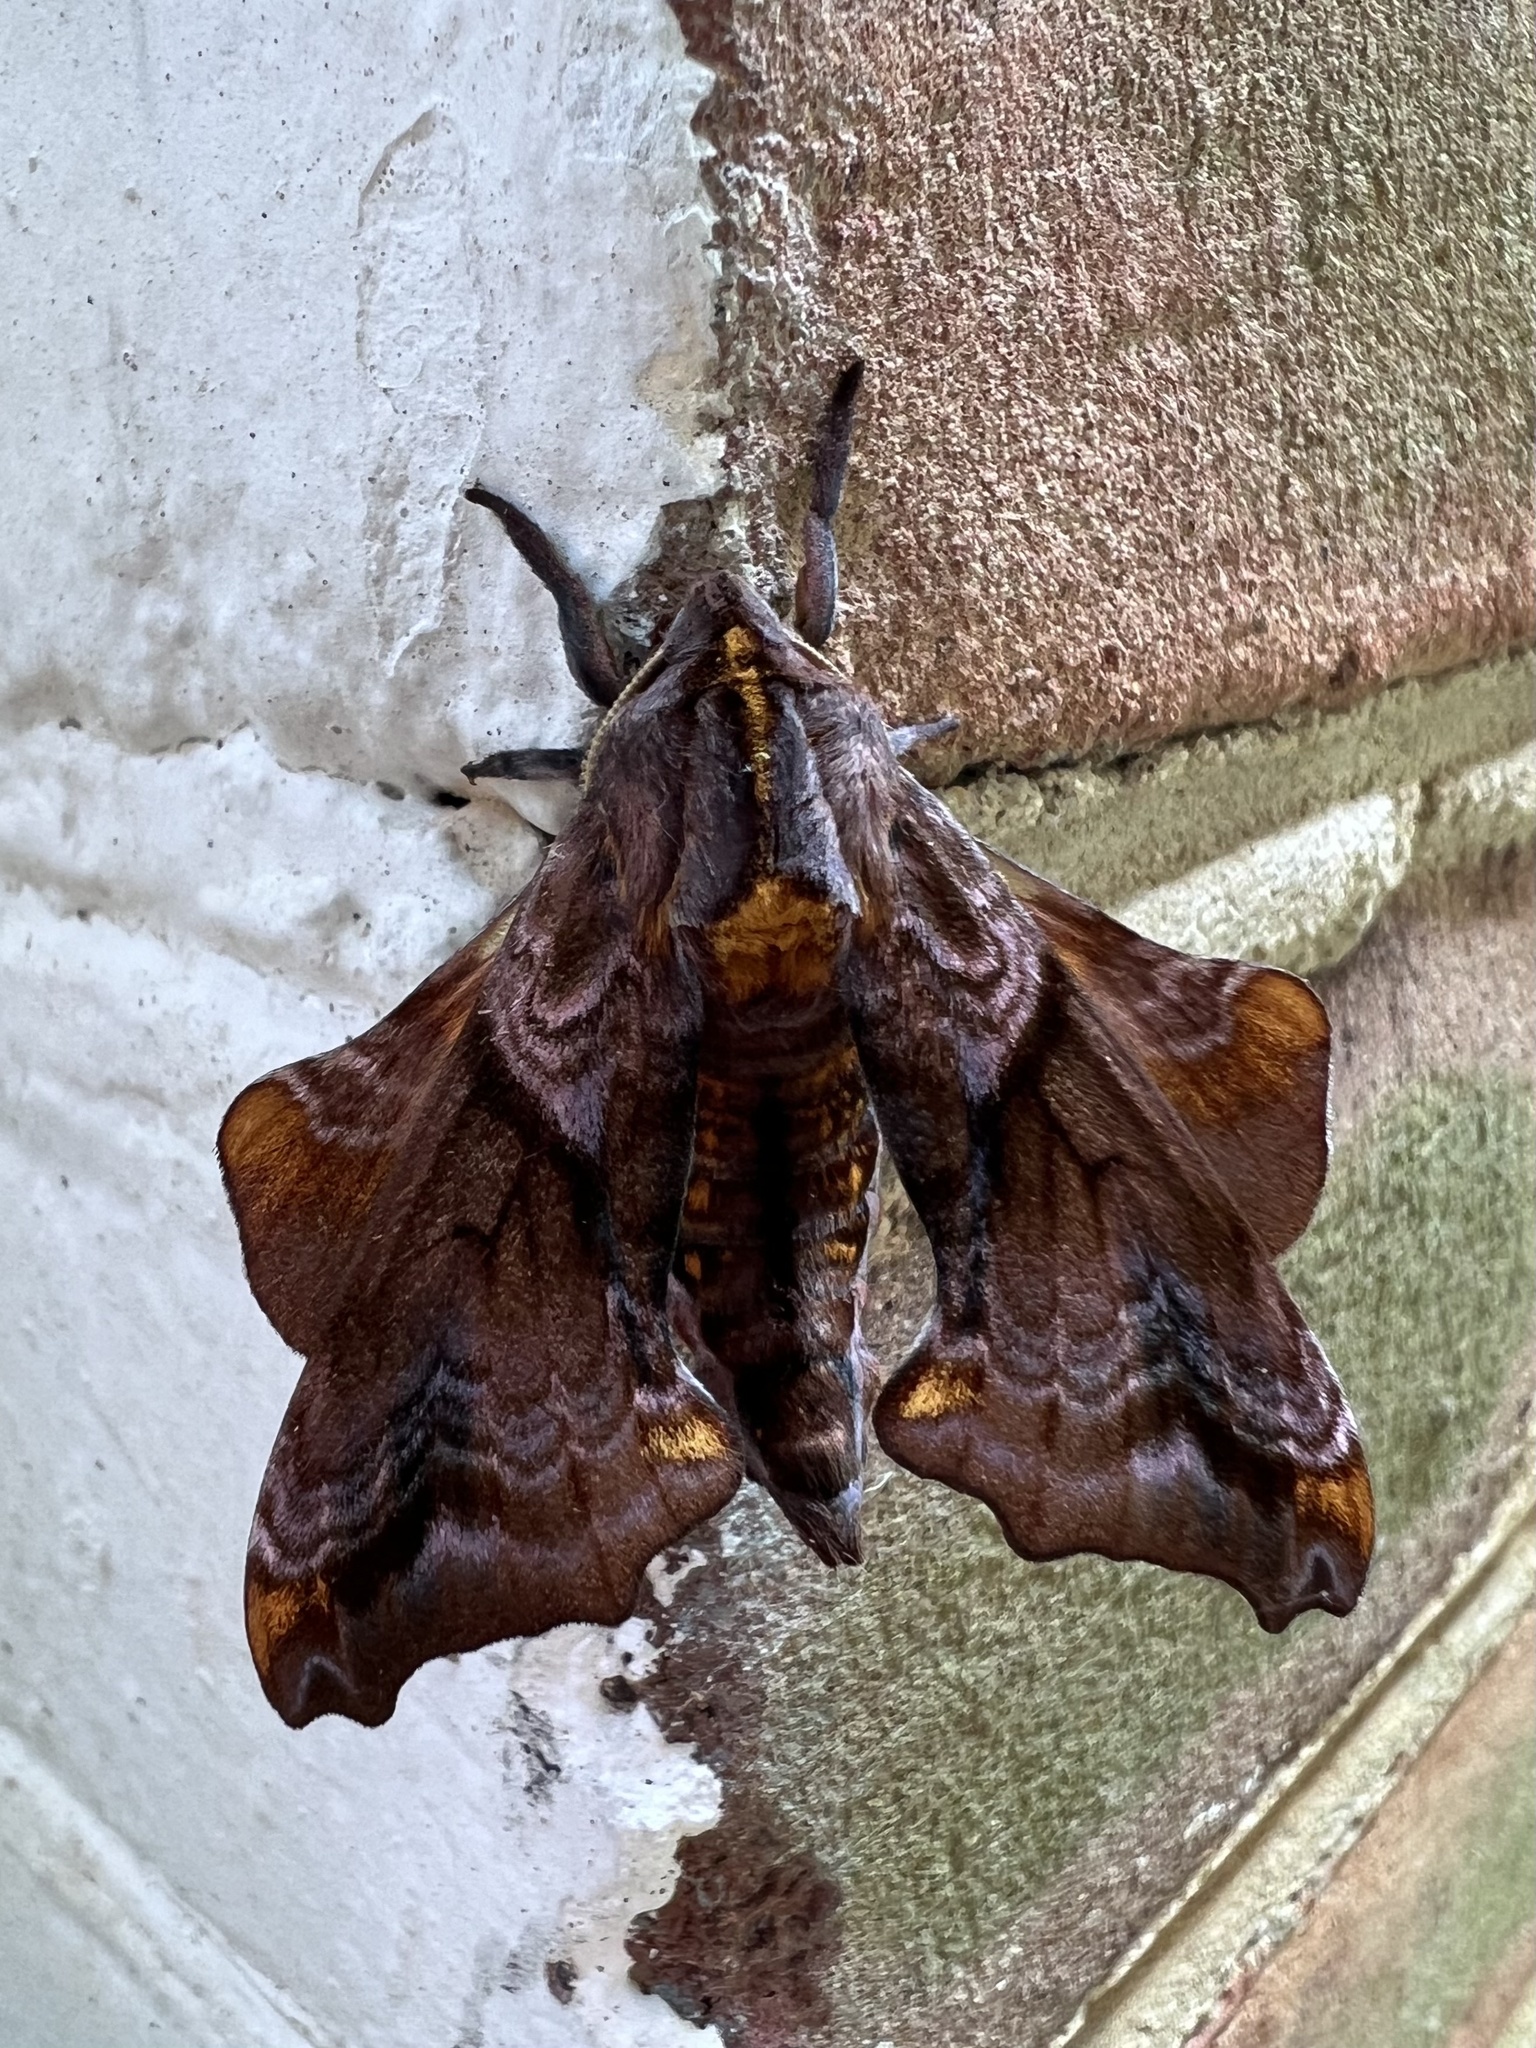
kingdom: Animalia
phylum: Arthropoda
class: Insecta
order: Lepidoptera
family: Sphingidae
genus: Paonias
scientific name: Paonias myops
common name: Small-eyed sphinx
